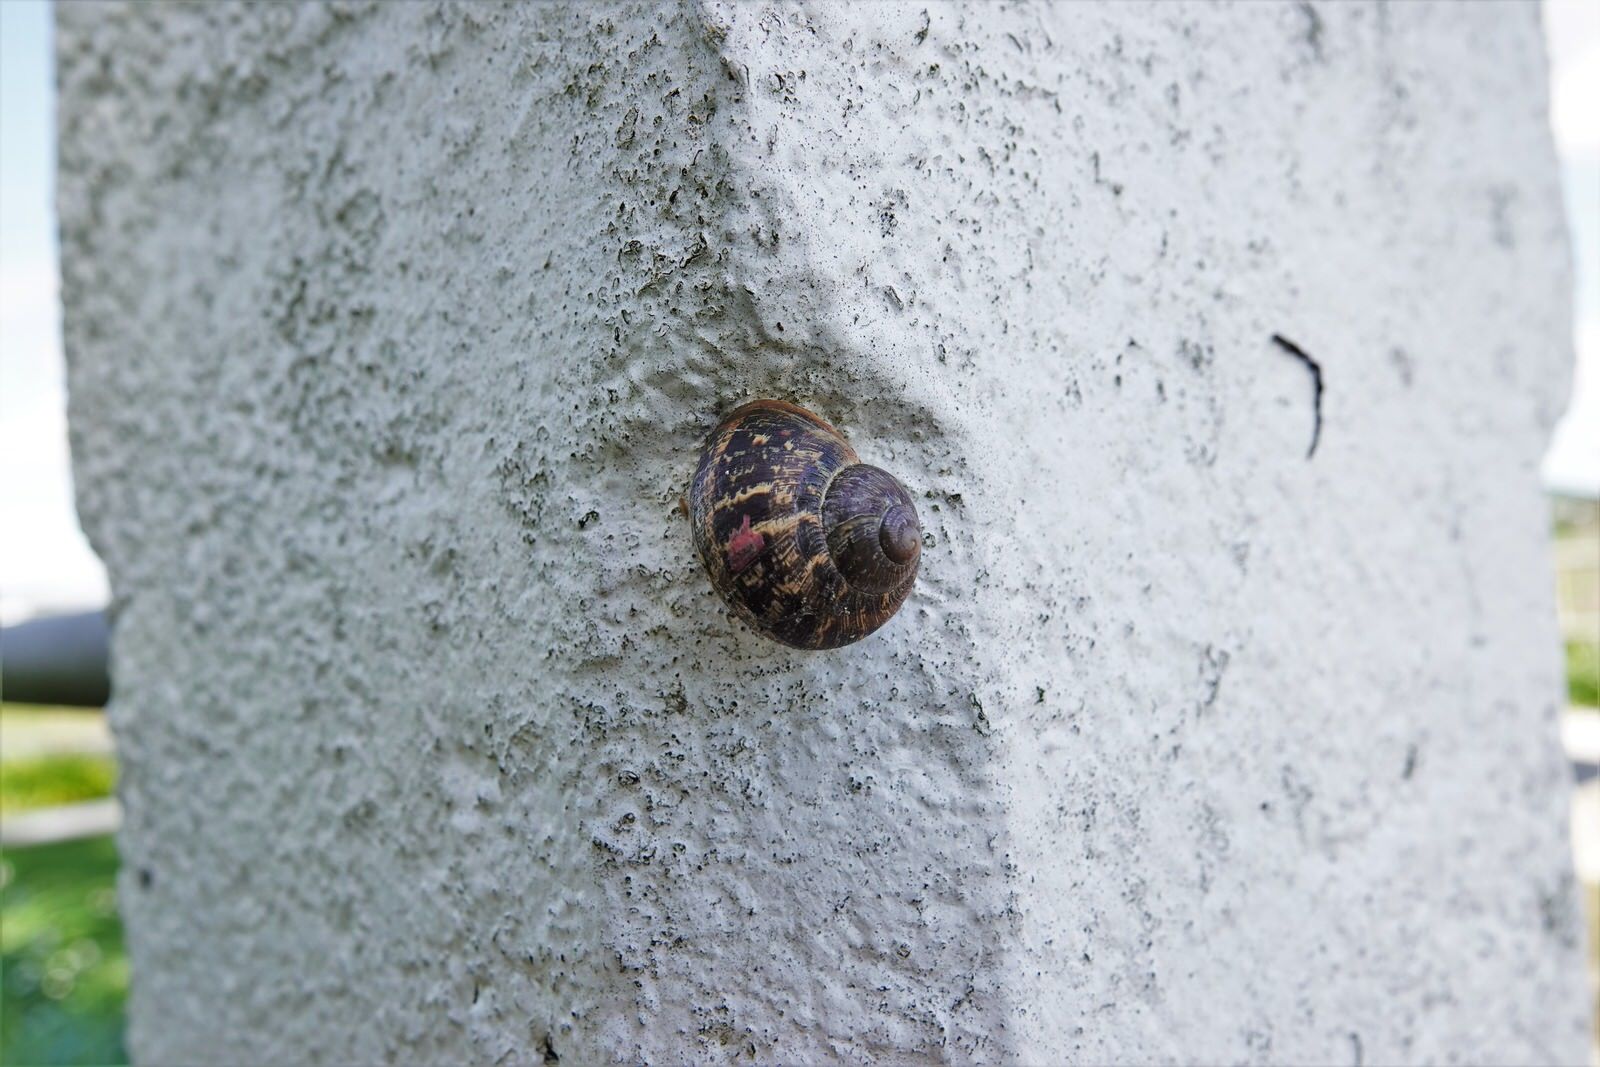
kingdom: Animalia
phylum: Mollusca
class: Gastropoda
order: Stylommatophora
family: Helicidae
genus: Cornu
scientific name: Cornu aspersum
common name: Brown garden snail
